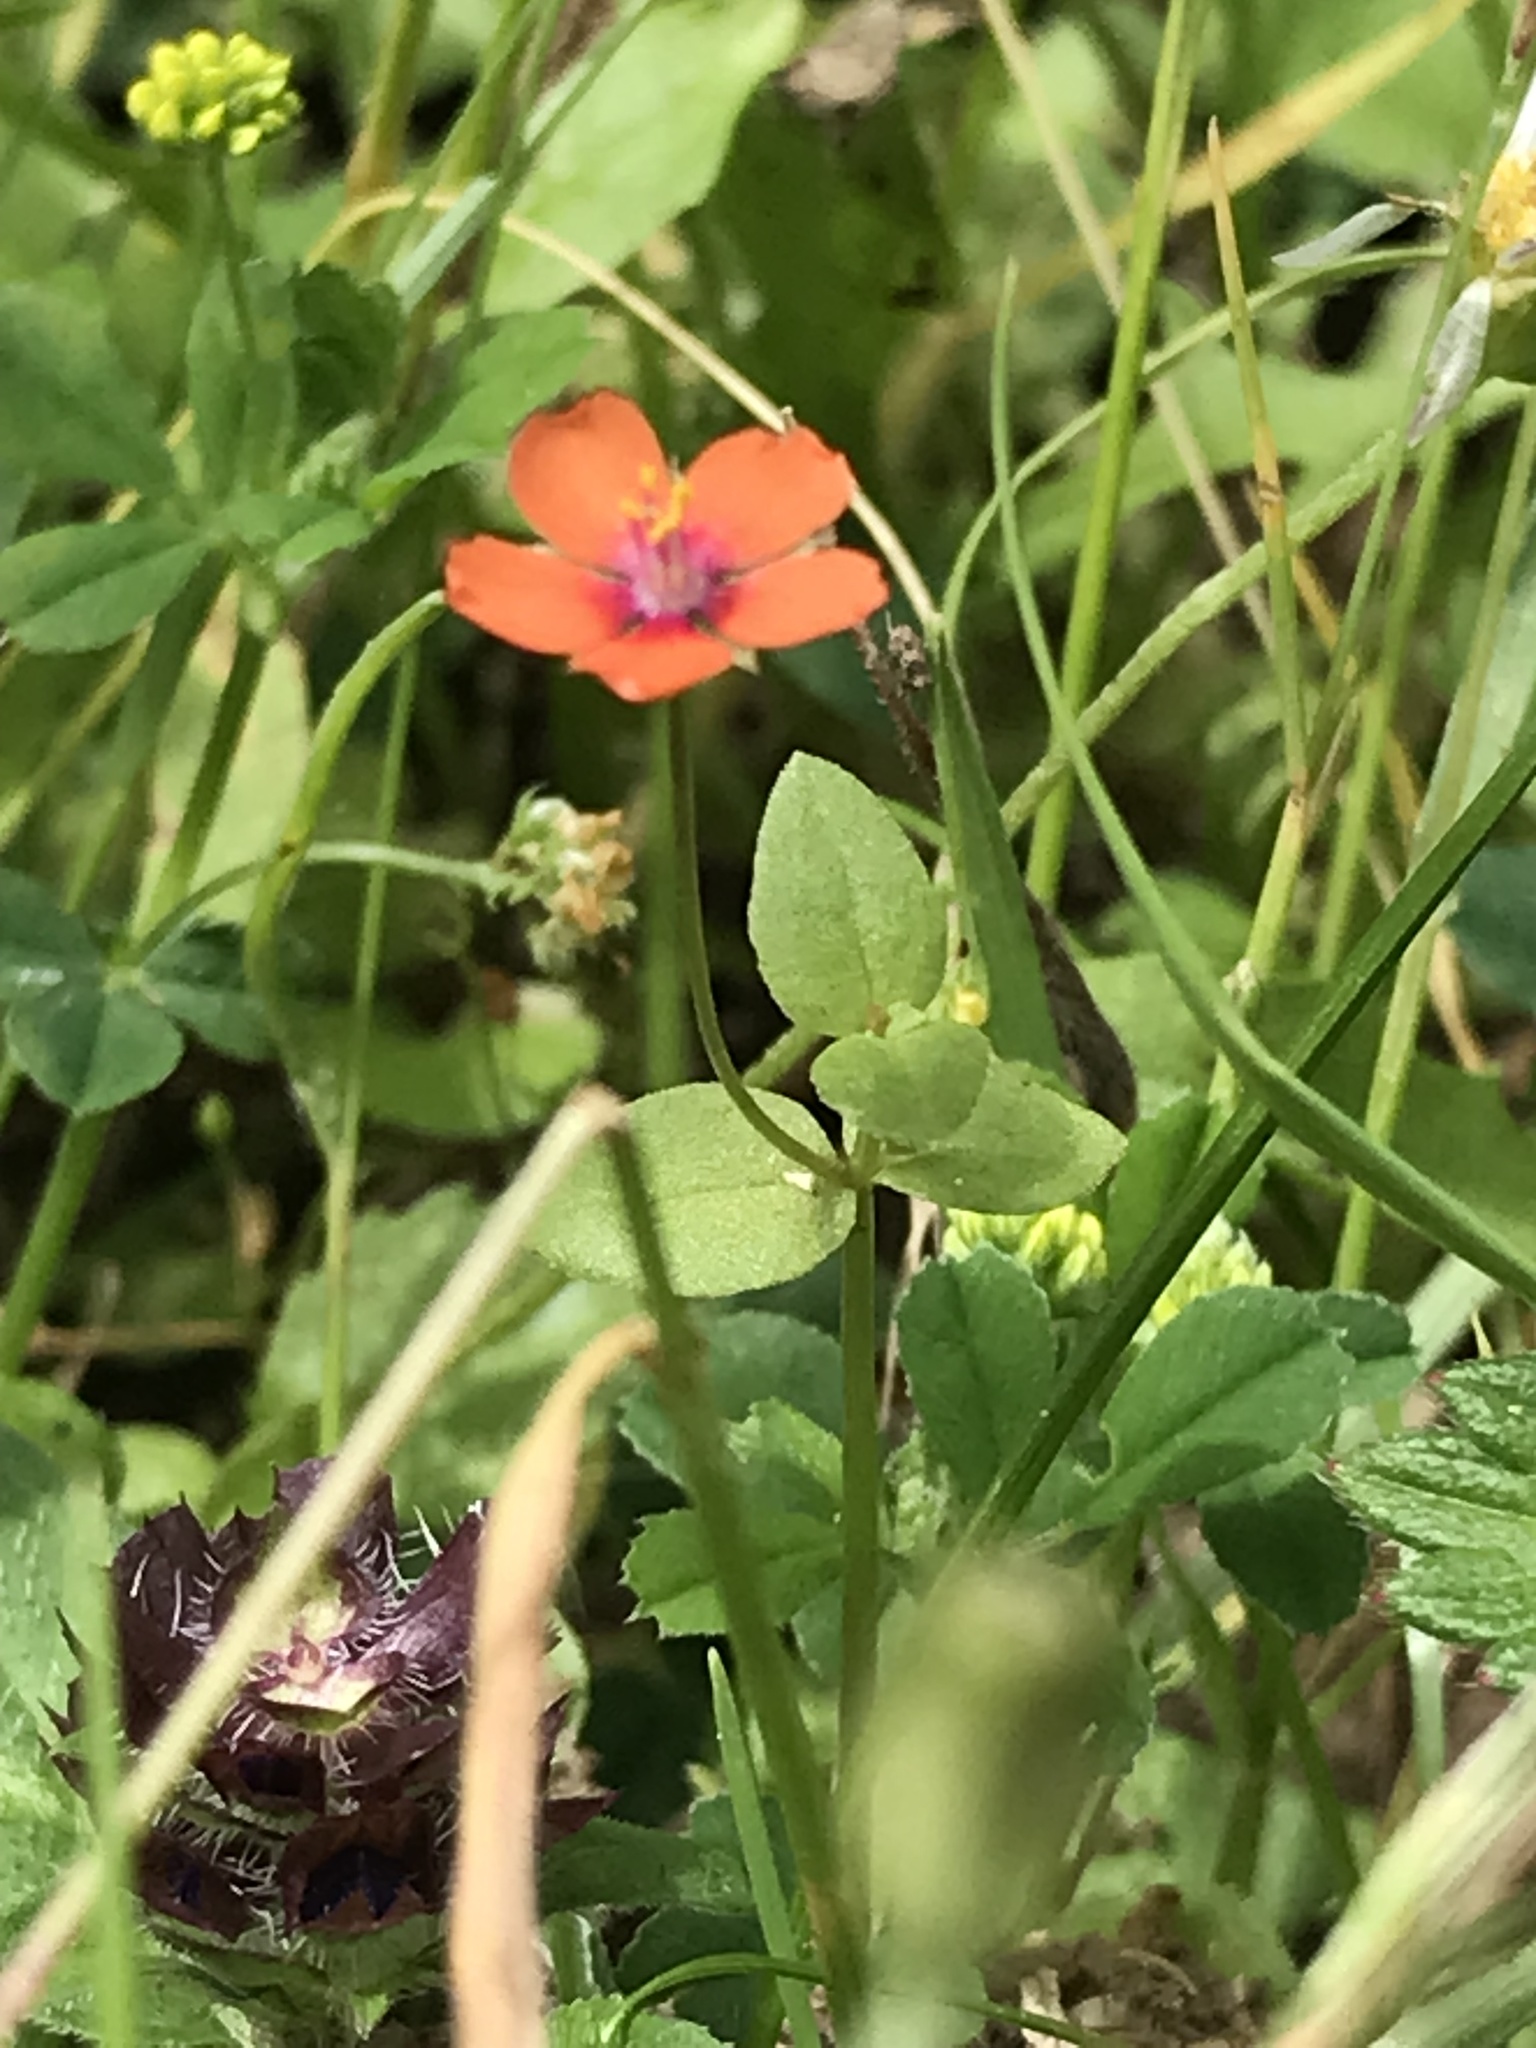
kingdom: Plantae
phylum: Tracheophyta
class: Magnoliopsida
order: Ericales
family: Primulaceae
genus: Lysimachia
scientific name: Lysimachia arvensis
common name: Scarlet pimpernel
